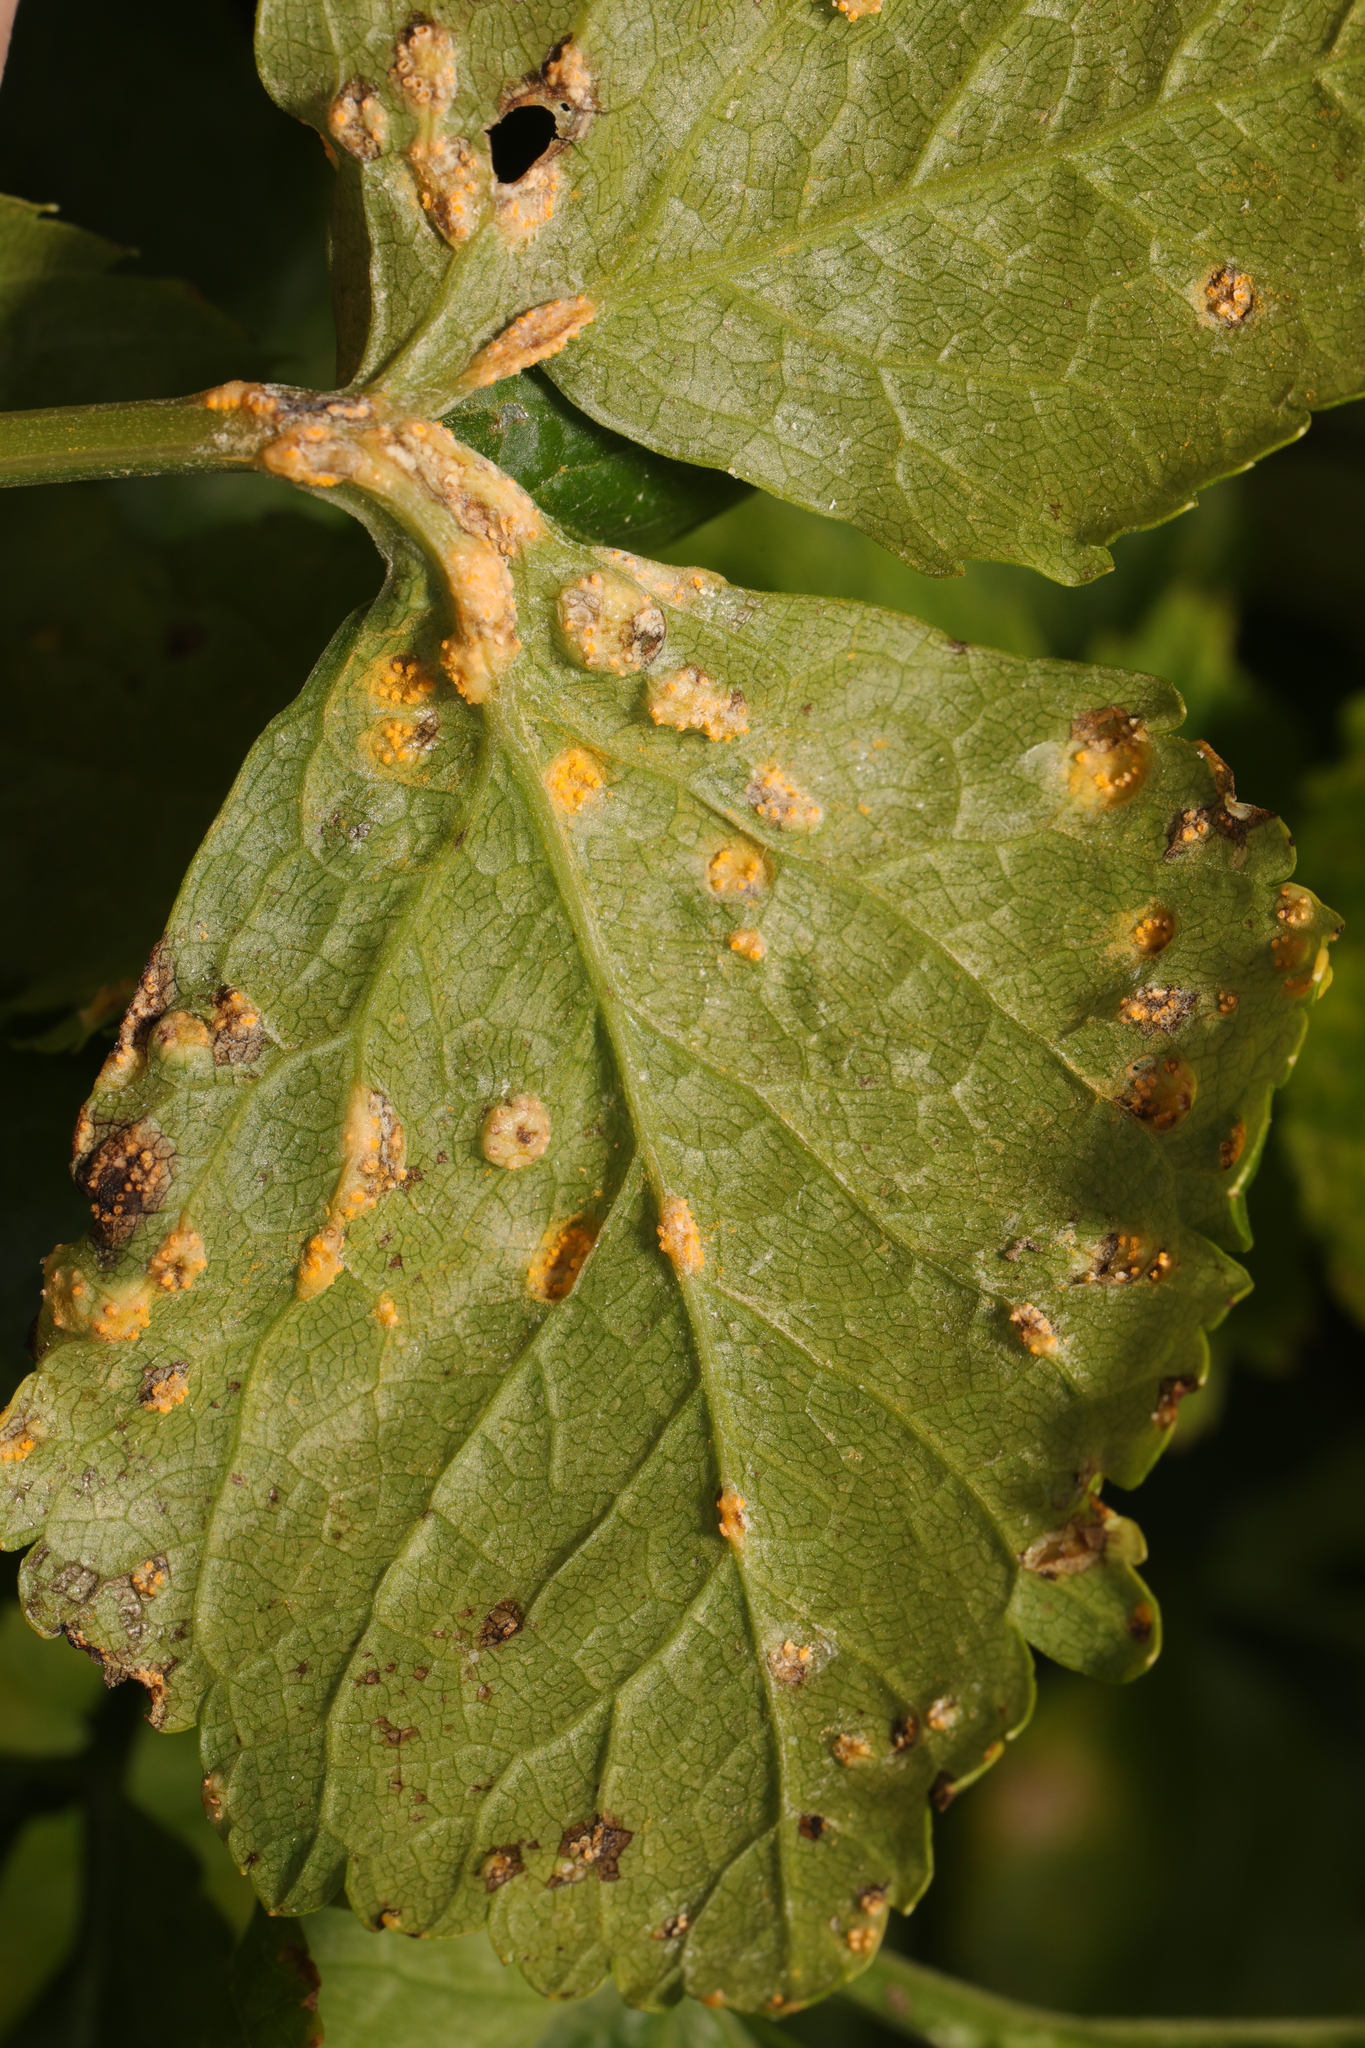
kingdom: Fungi
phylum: Basidiomycota
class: Pucciniomycetes
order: Pucciniales
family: Pucciniaceae
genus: Puccinia
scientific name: Puccinia smyrnii
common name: Alexanders rust
